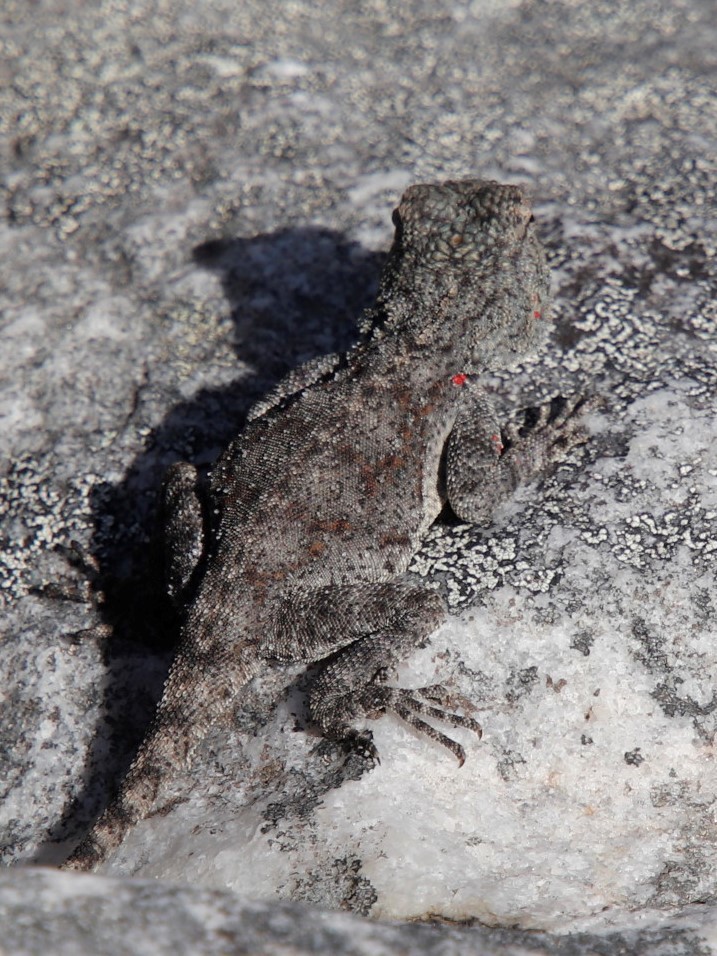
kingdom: Animalia
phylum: Chordata
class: Squamata
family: Agamidae
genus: Agama
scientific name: Agama atra
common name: Southern african rock agama
